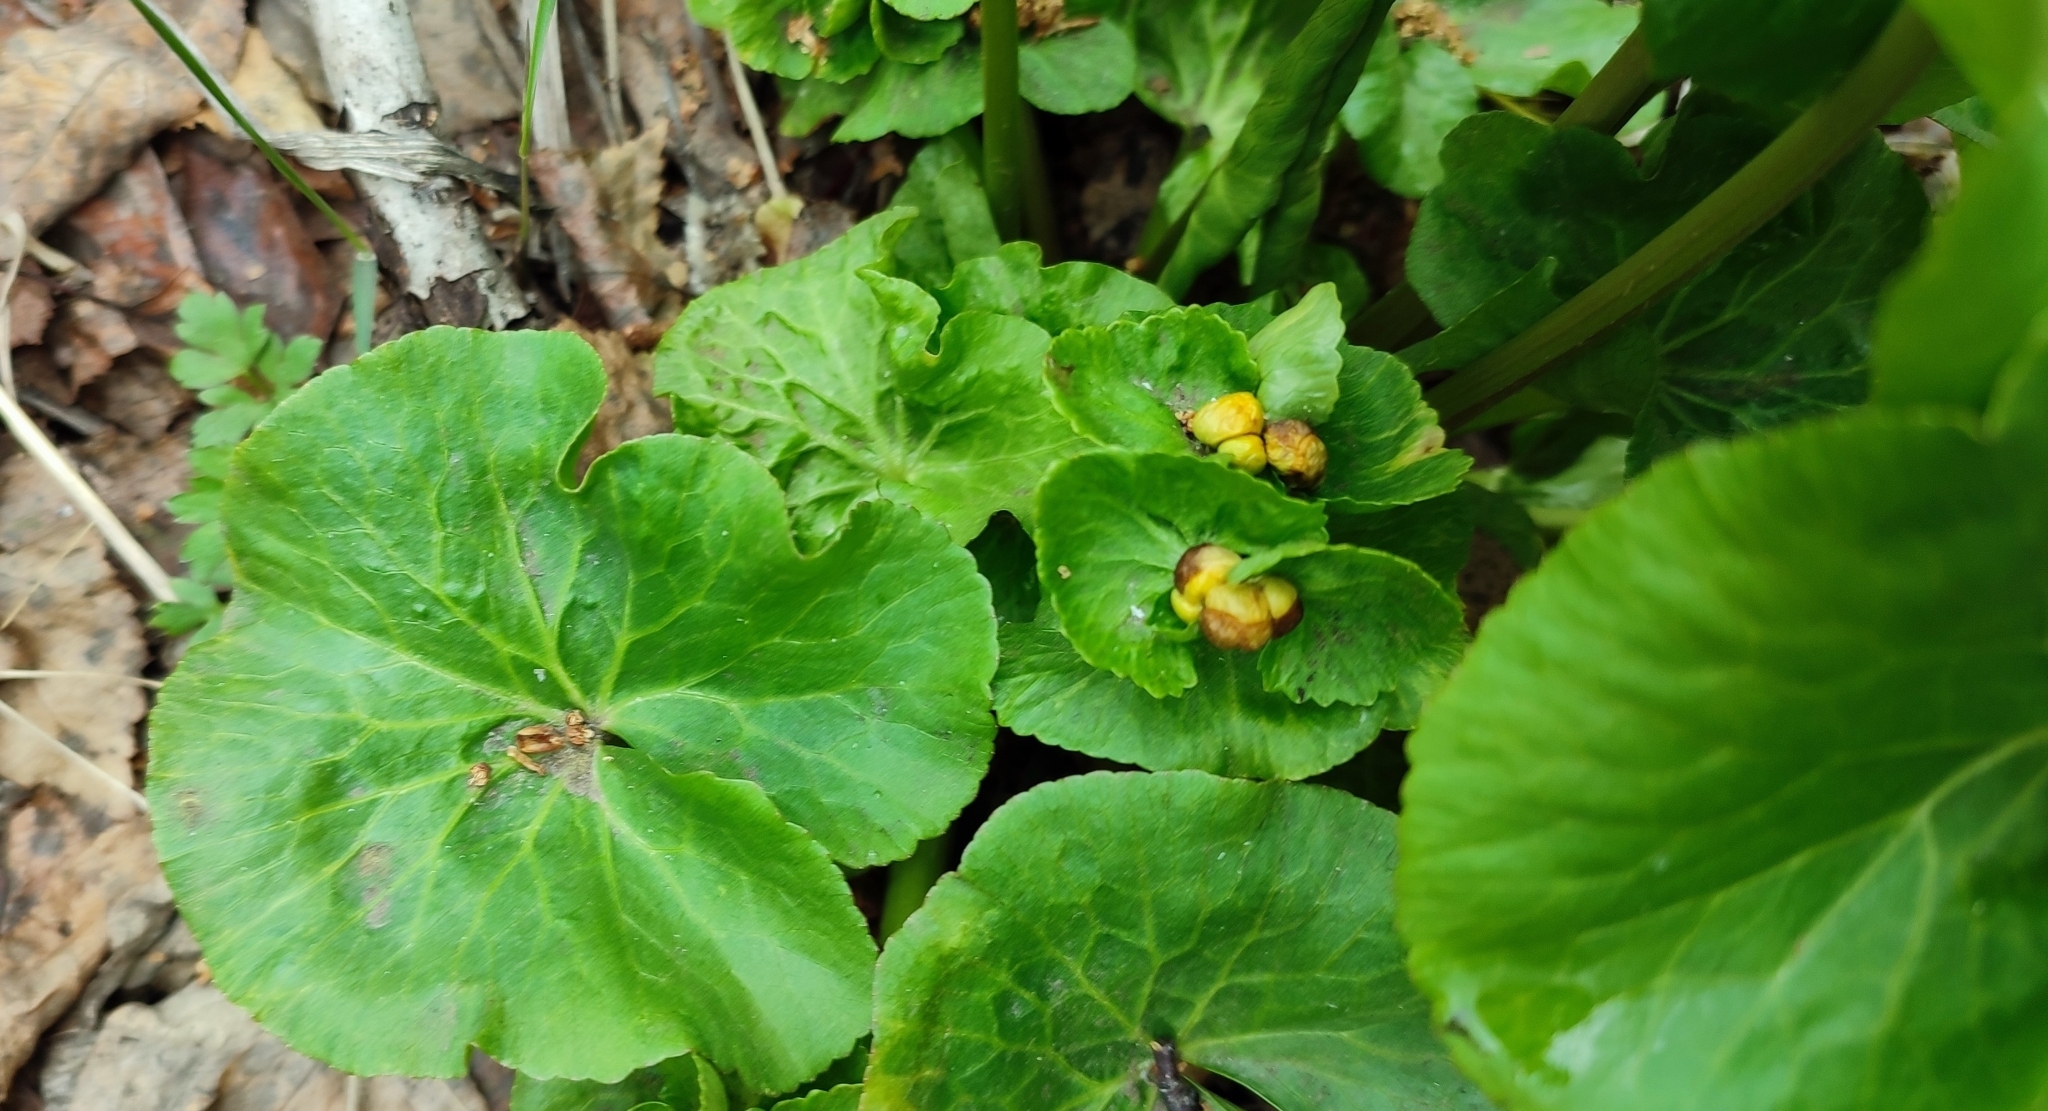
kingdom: Plantae
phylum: Tracheophyta
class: Magnoliopsida
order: Ranunculales
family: Ranunculaceae
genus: Caltha
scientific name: Caltha palustris
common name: Marsh marigold
